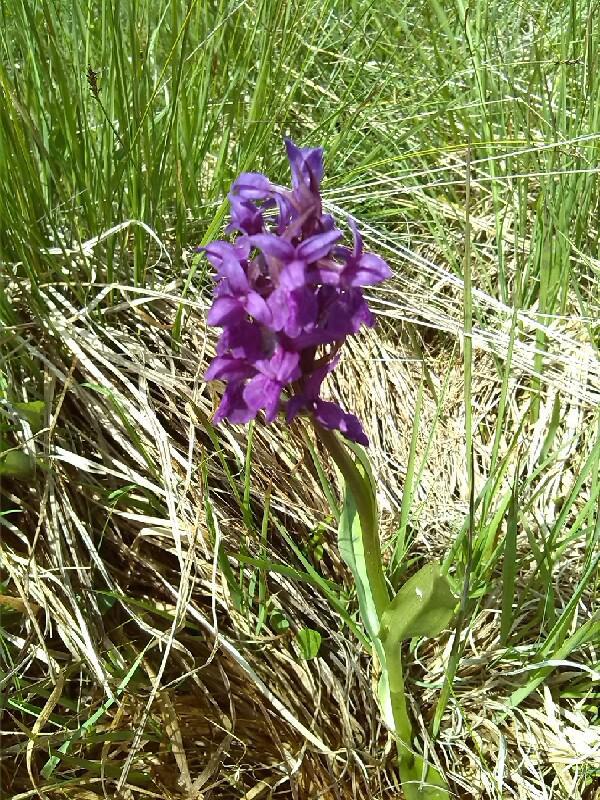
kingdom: Plantae
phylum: Tracheophyta
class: Liliopsida
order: Asparagales
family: Orchidaceae
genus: Dactylorhiza
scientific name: Dactylorhiza majalis
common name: Marsh orchid
